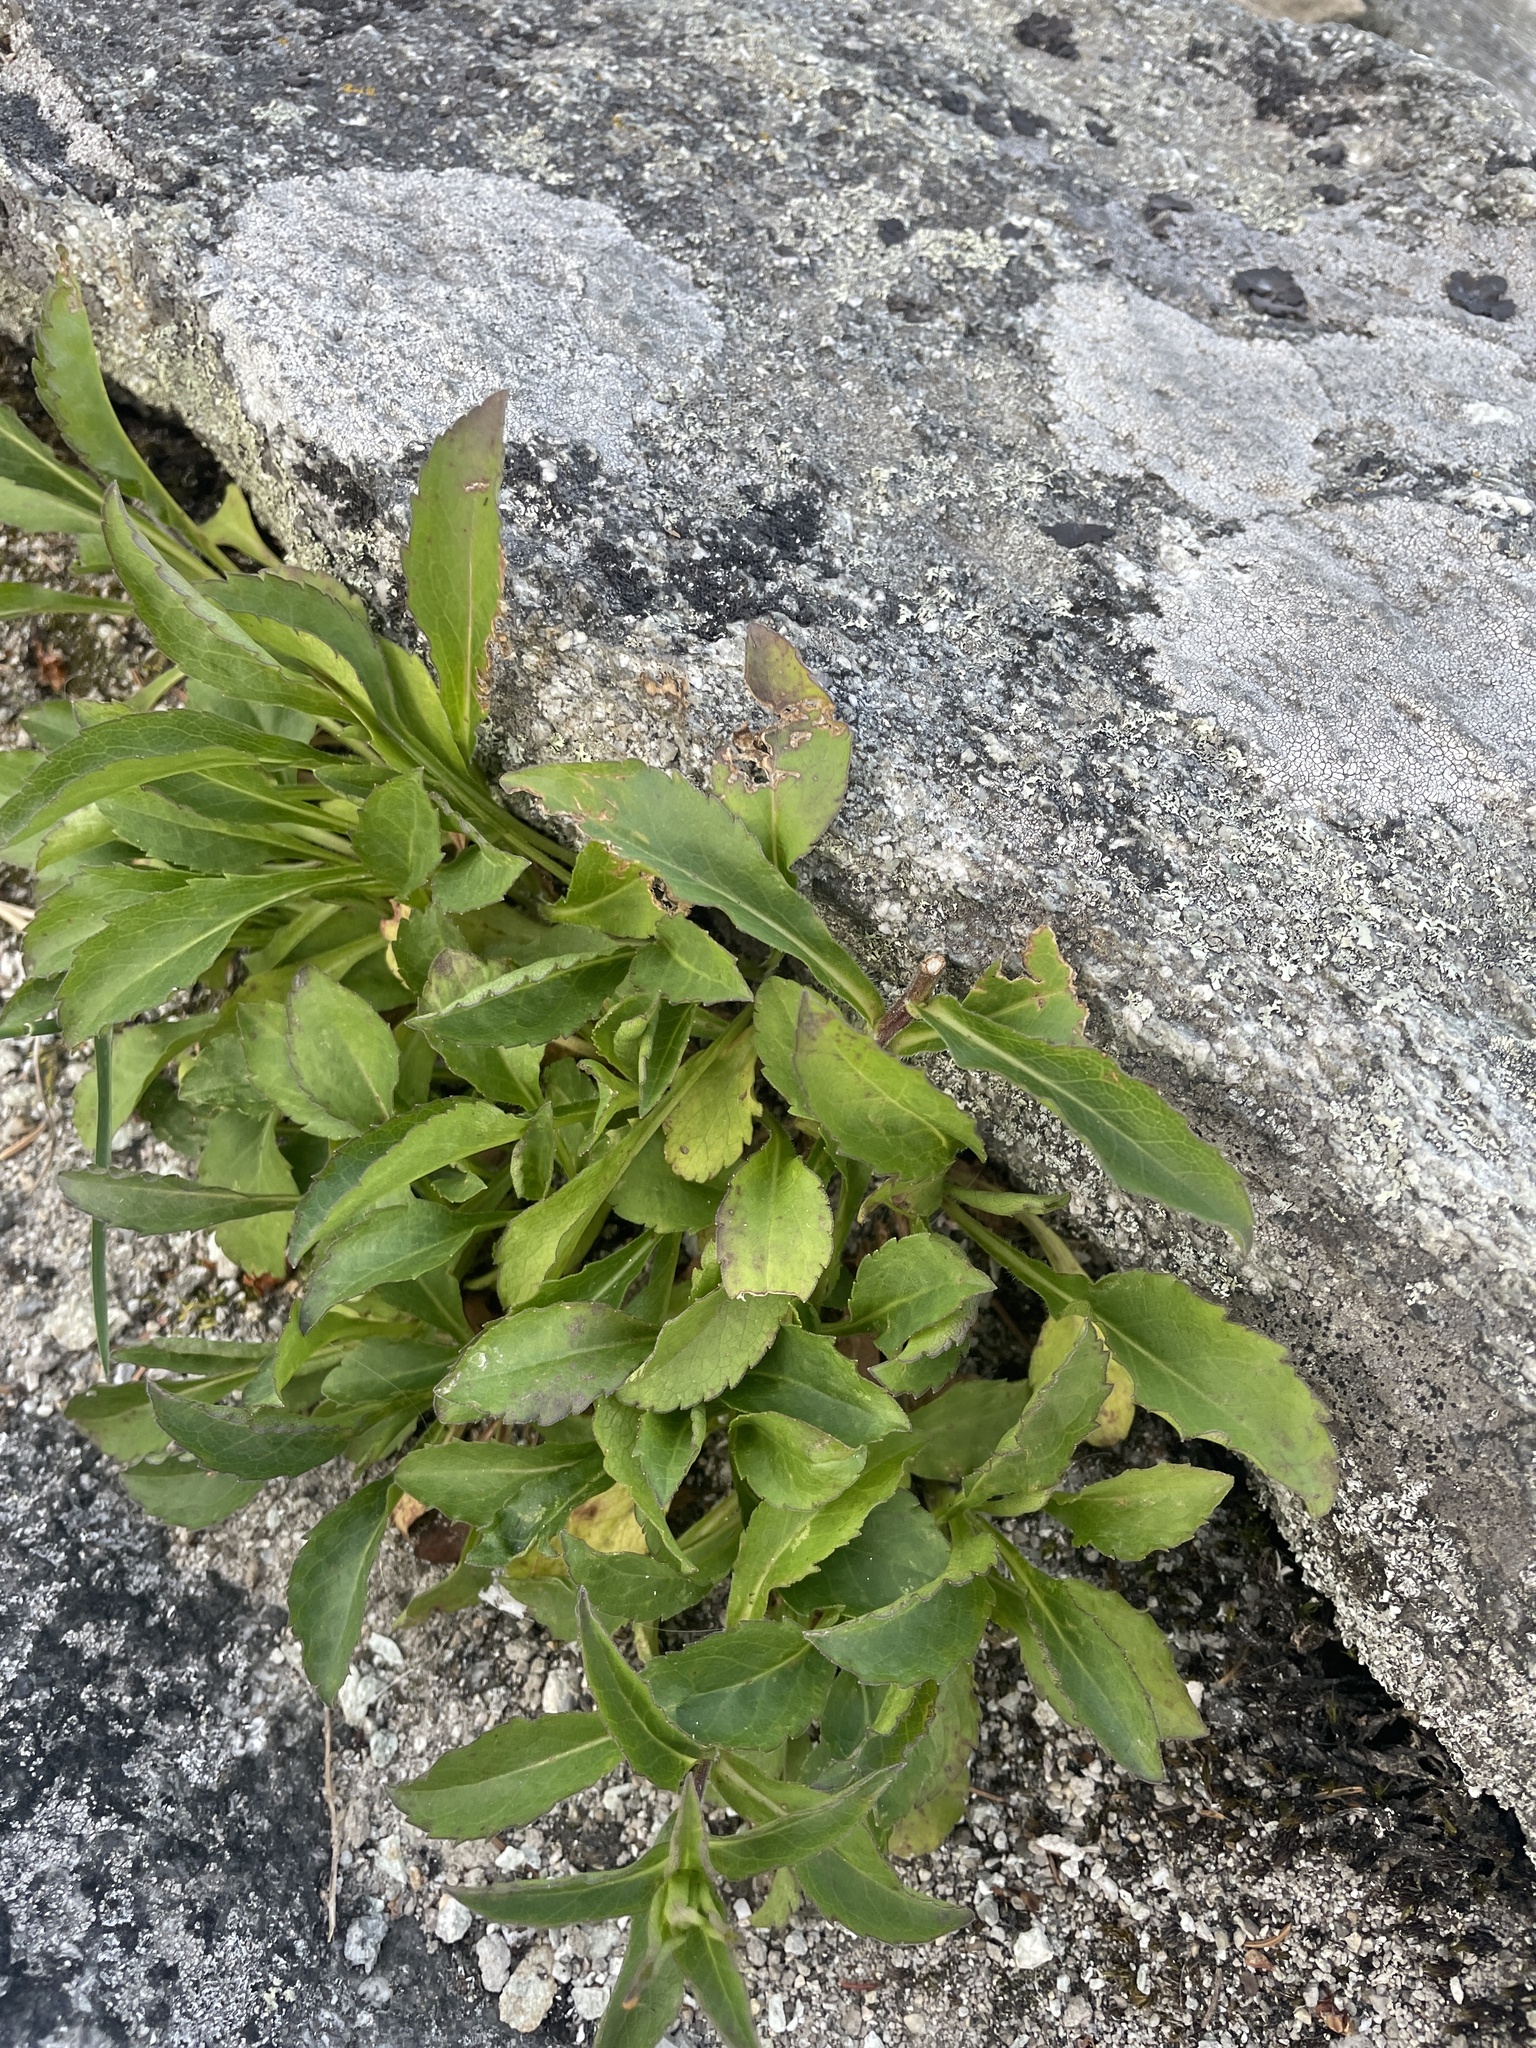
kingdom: Plantae
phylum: Tracheophyta
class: Magnoliopsida
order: Asterales
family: Asteraceae
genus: Solidago
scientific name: Solidago spithamaea
